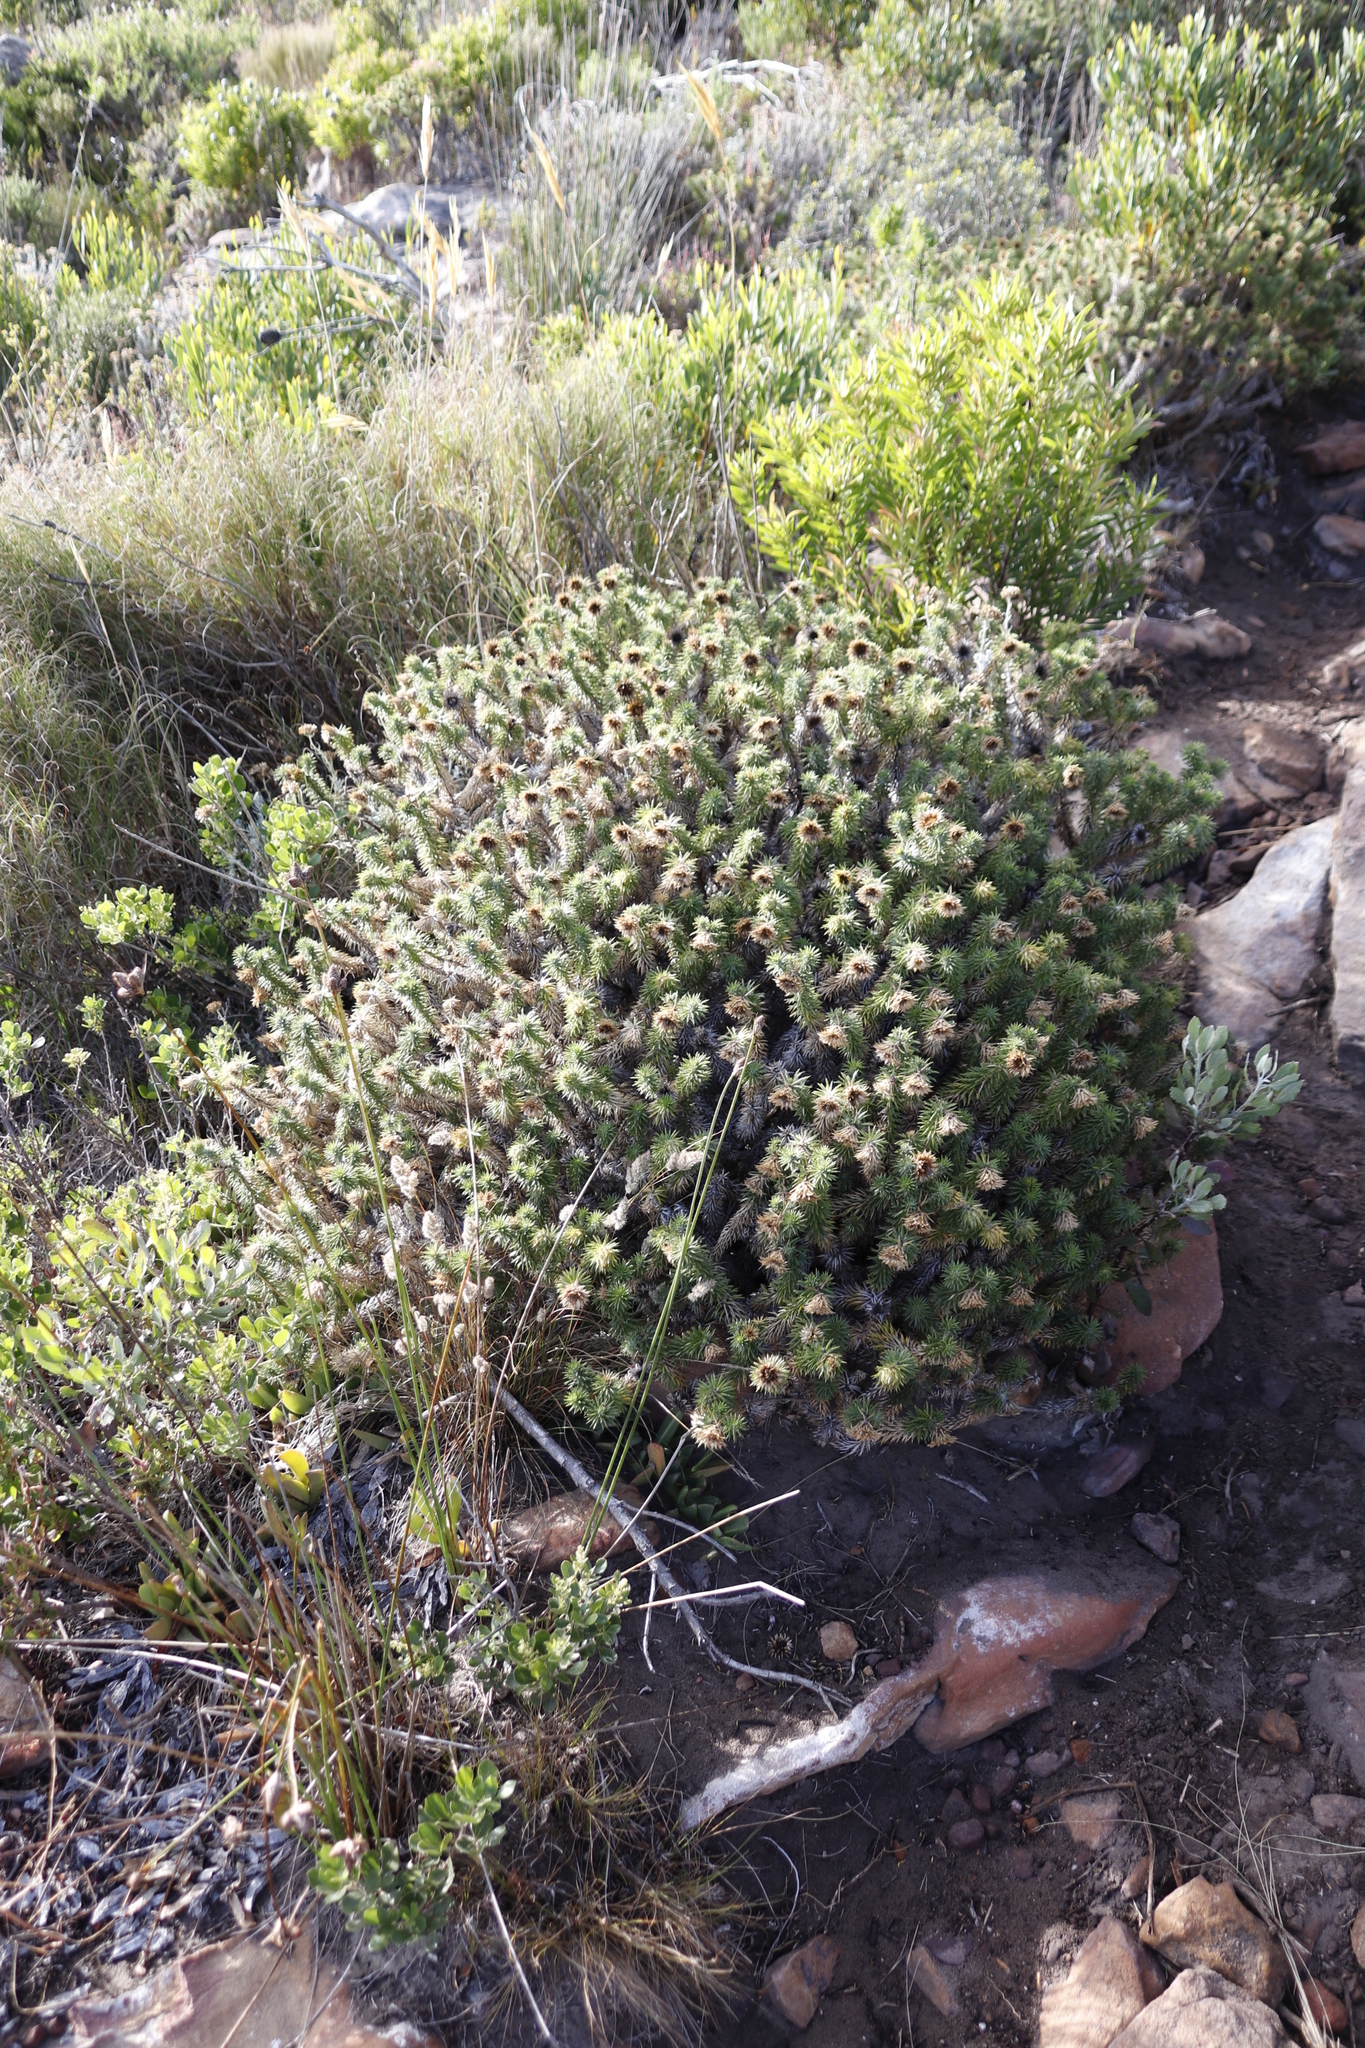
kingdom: Plantae
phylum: Tracheophyta
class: Magnoliopsida
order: Asterales
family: Asteraceae
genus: Cullumia
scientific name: Cullumia squarrosa
